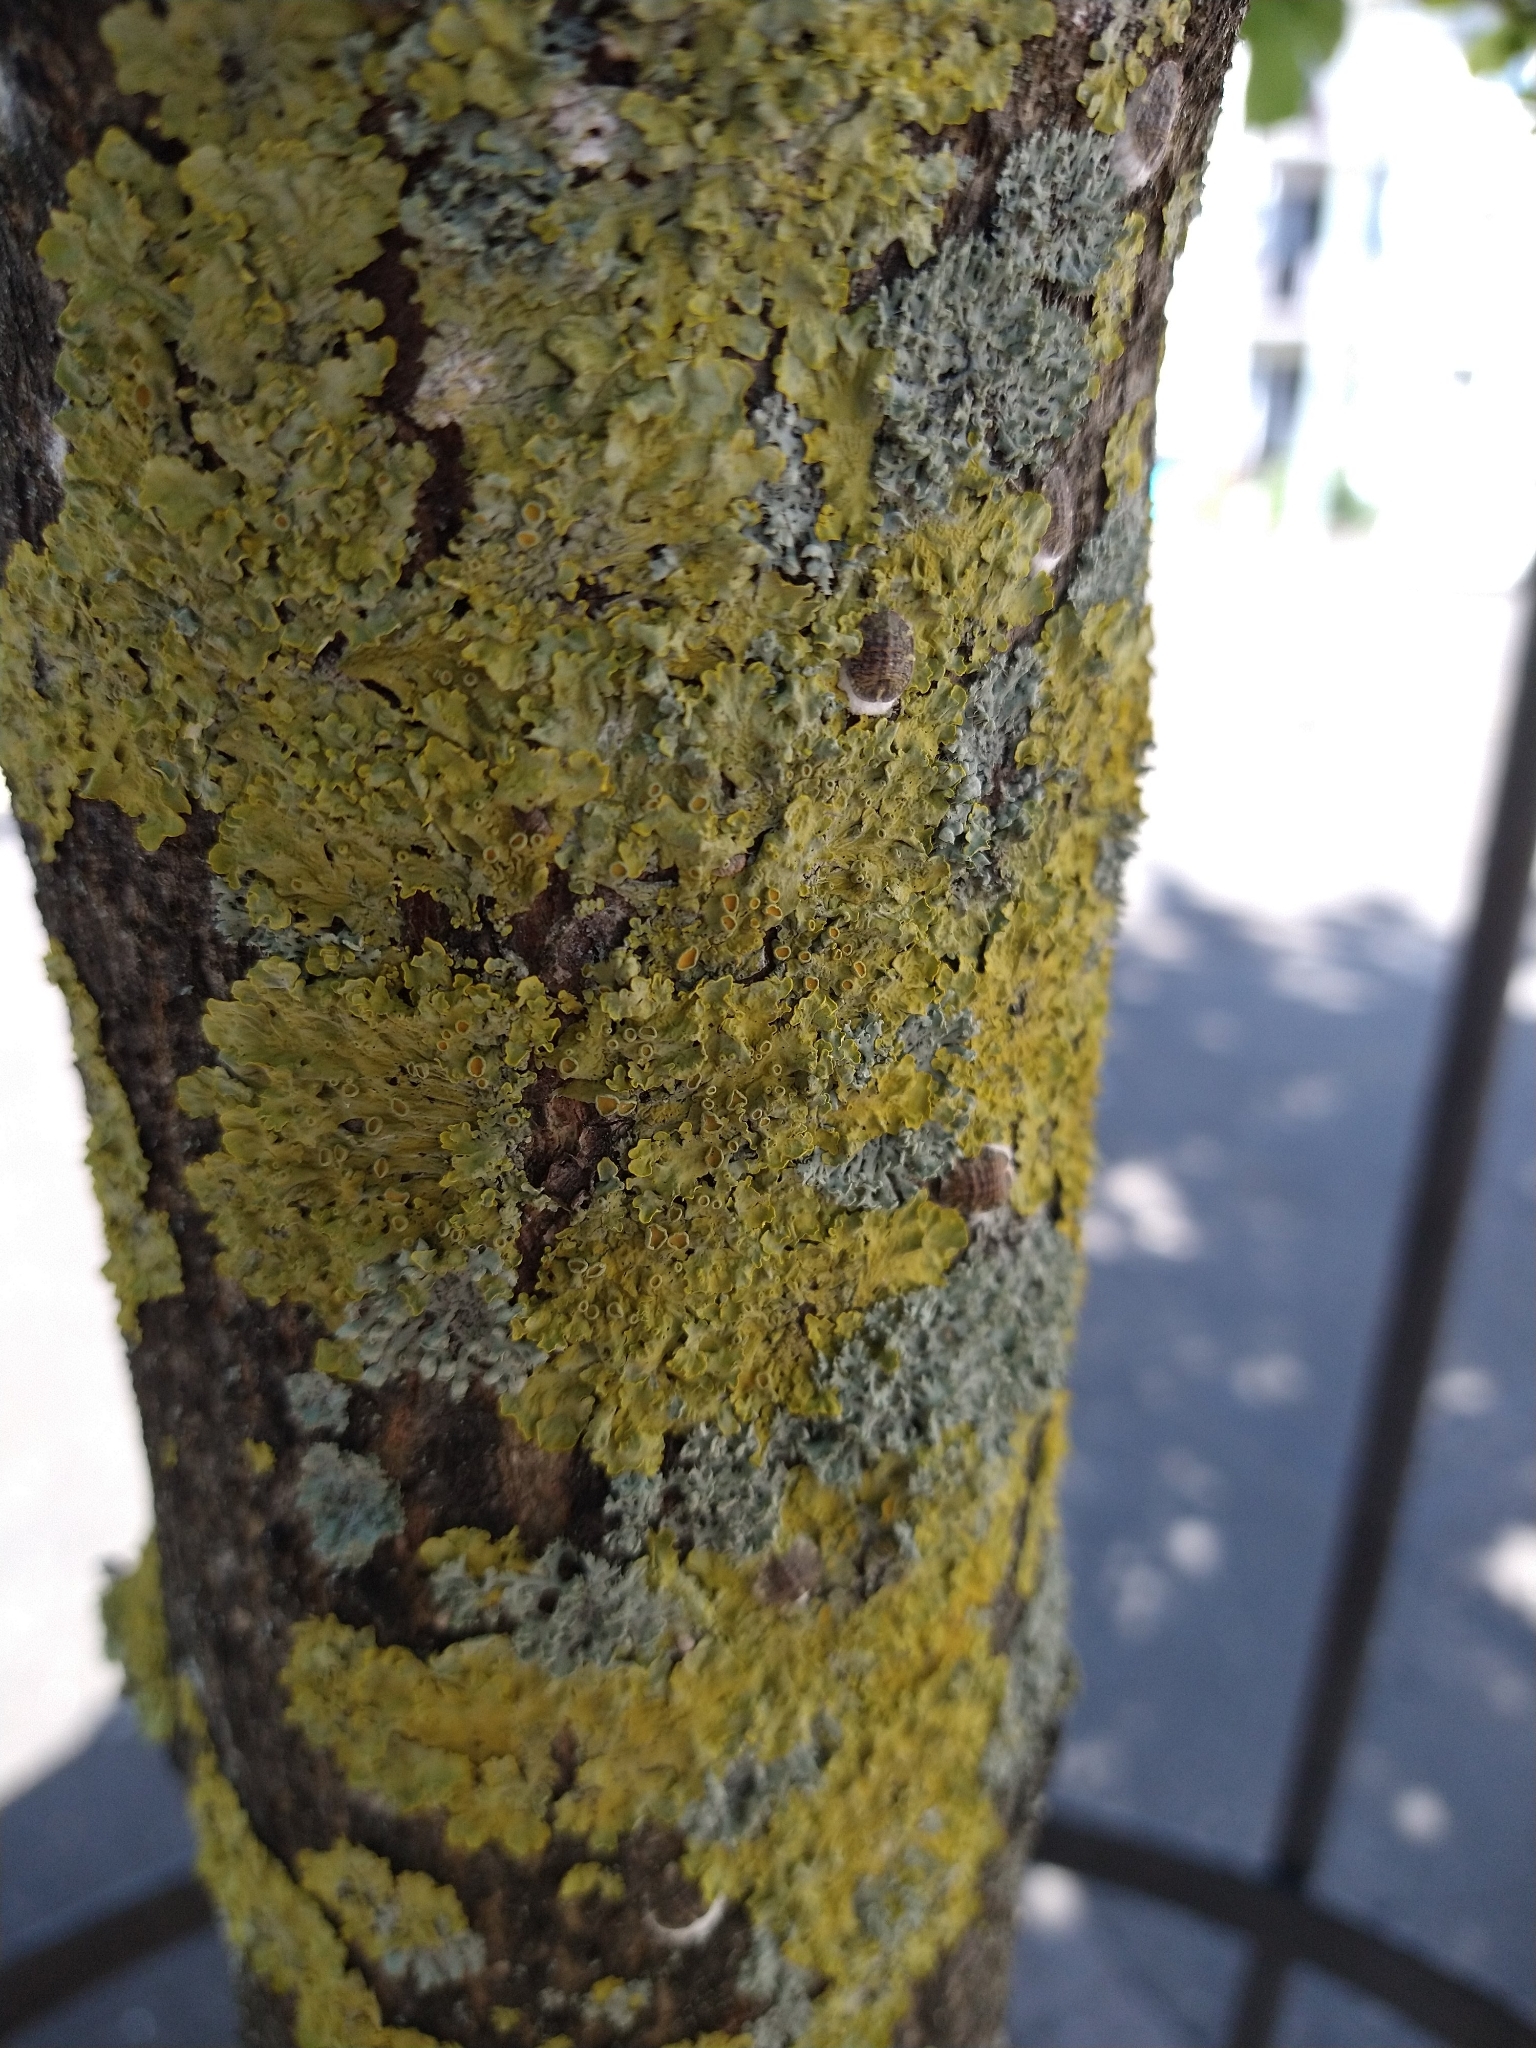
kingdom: Fungi
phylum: Ascomycota
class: Lecanoromycetes
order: Teloschistales
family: Teloschistaceae
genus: Xanthoria
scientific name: Xanthoria parietina
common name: Common orange lichen
